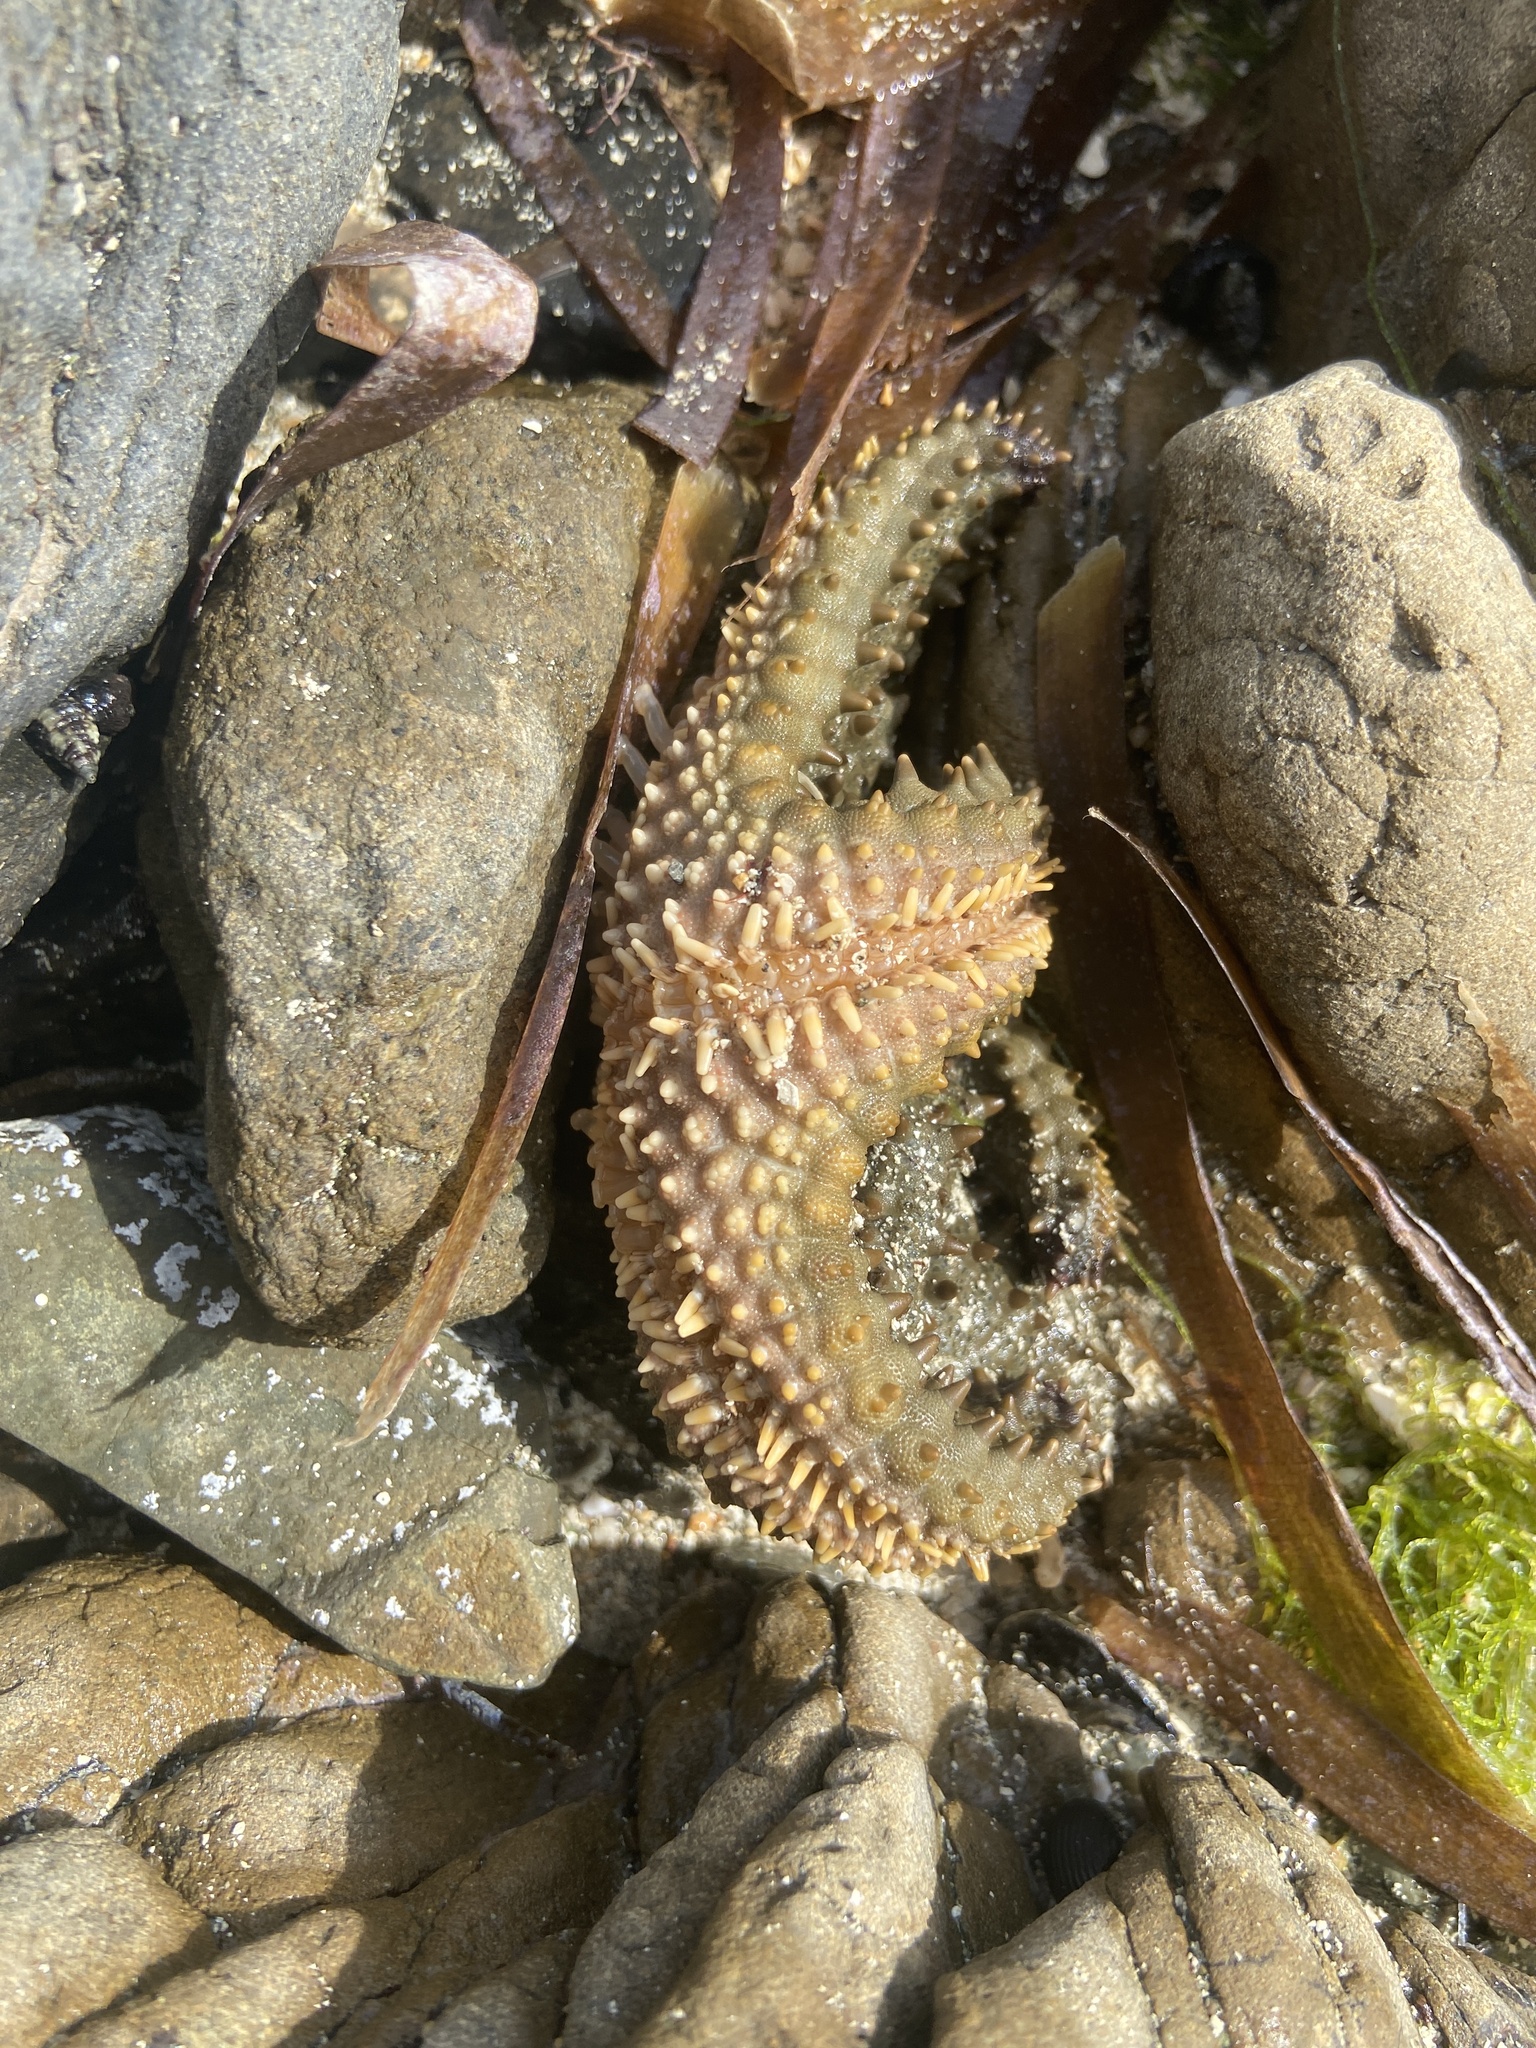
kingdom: Animalia
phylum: Echinodermata
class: Asteroidea
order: Valvatida
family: Oreasteridae
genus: Oreaster
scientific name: Oreaster reticulatus
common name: Cushion sea star
